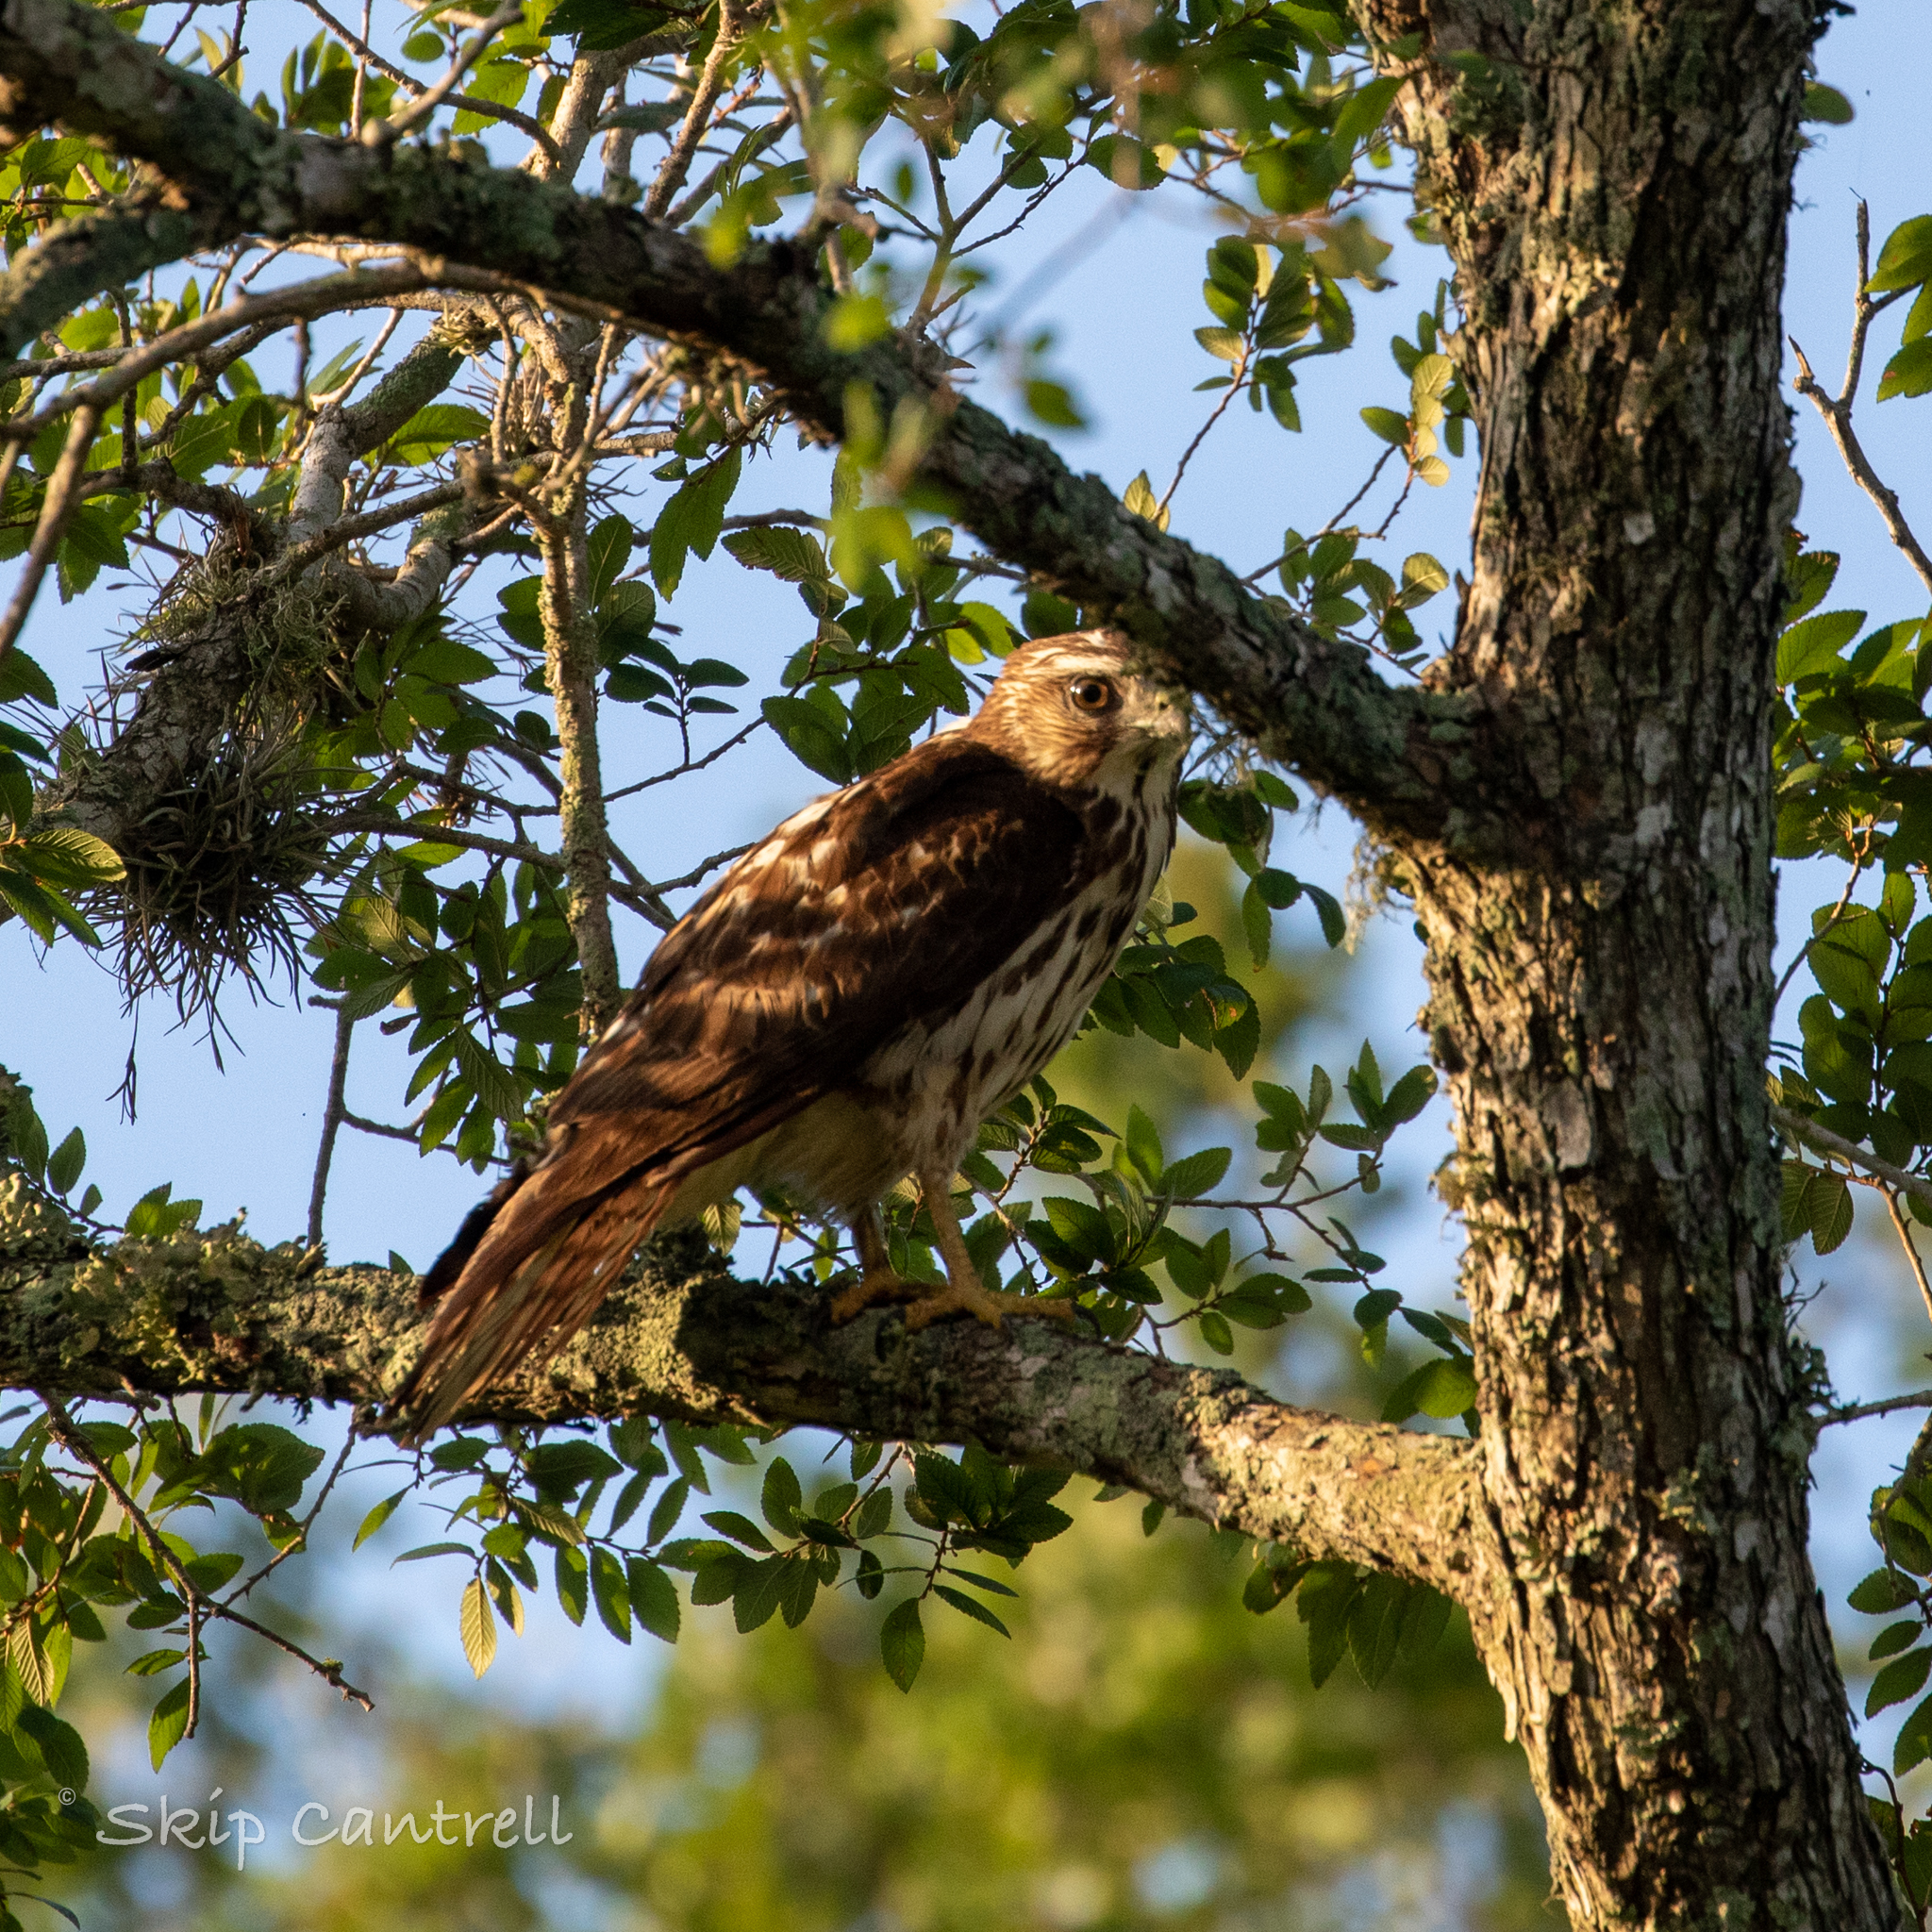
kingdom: Animalia
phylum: Chordata
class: Aves
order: Accipitriformes
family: Accipitridae
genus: Buteo
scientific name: Buteo platypterus
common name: Broad-winged hawk
